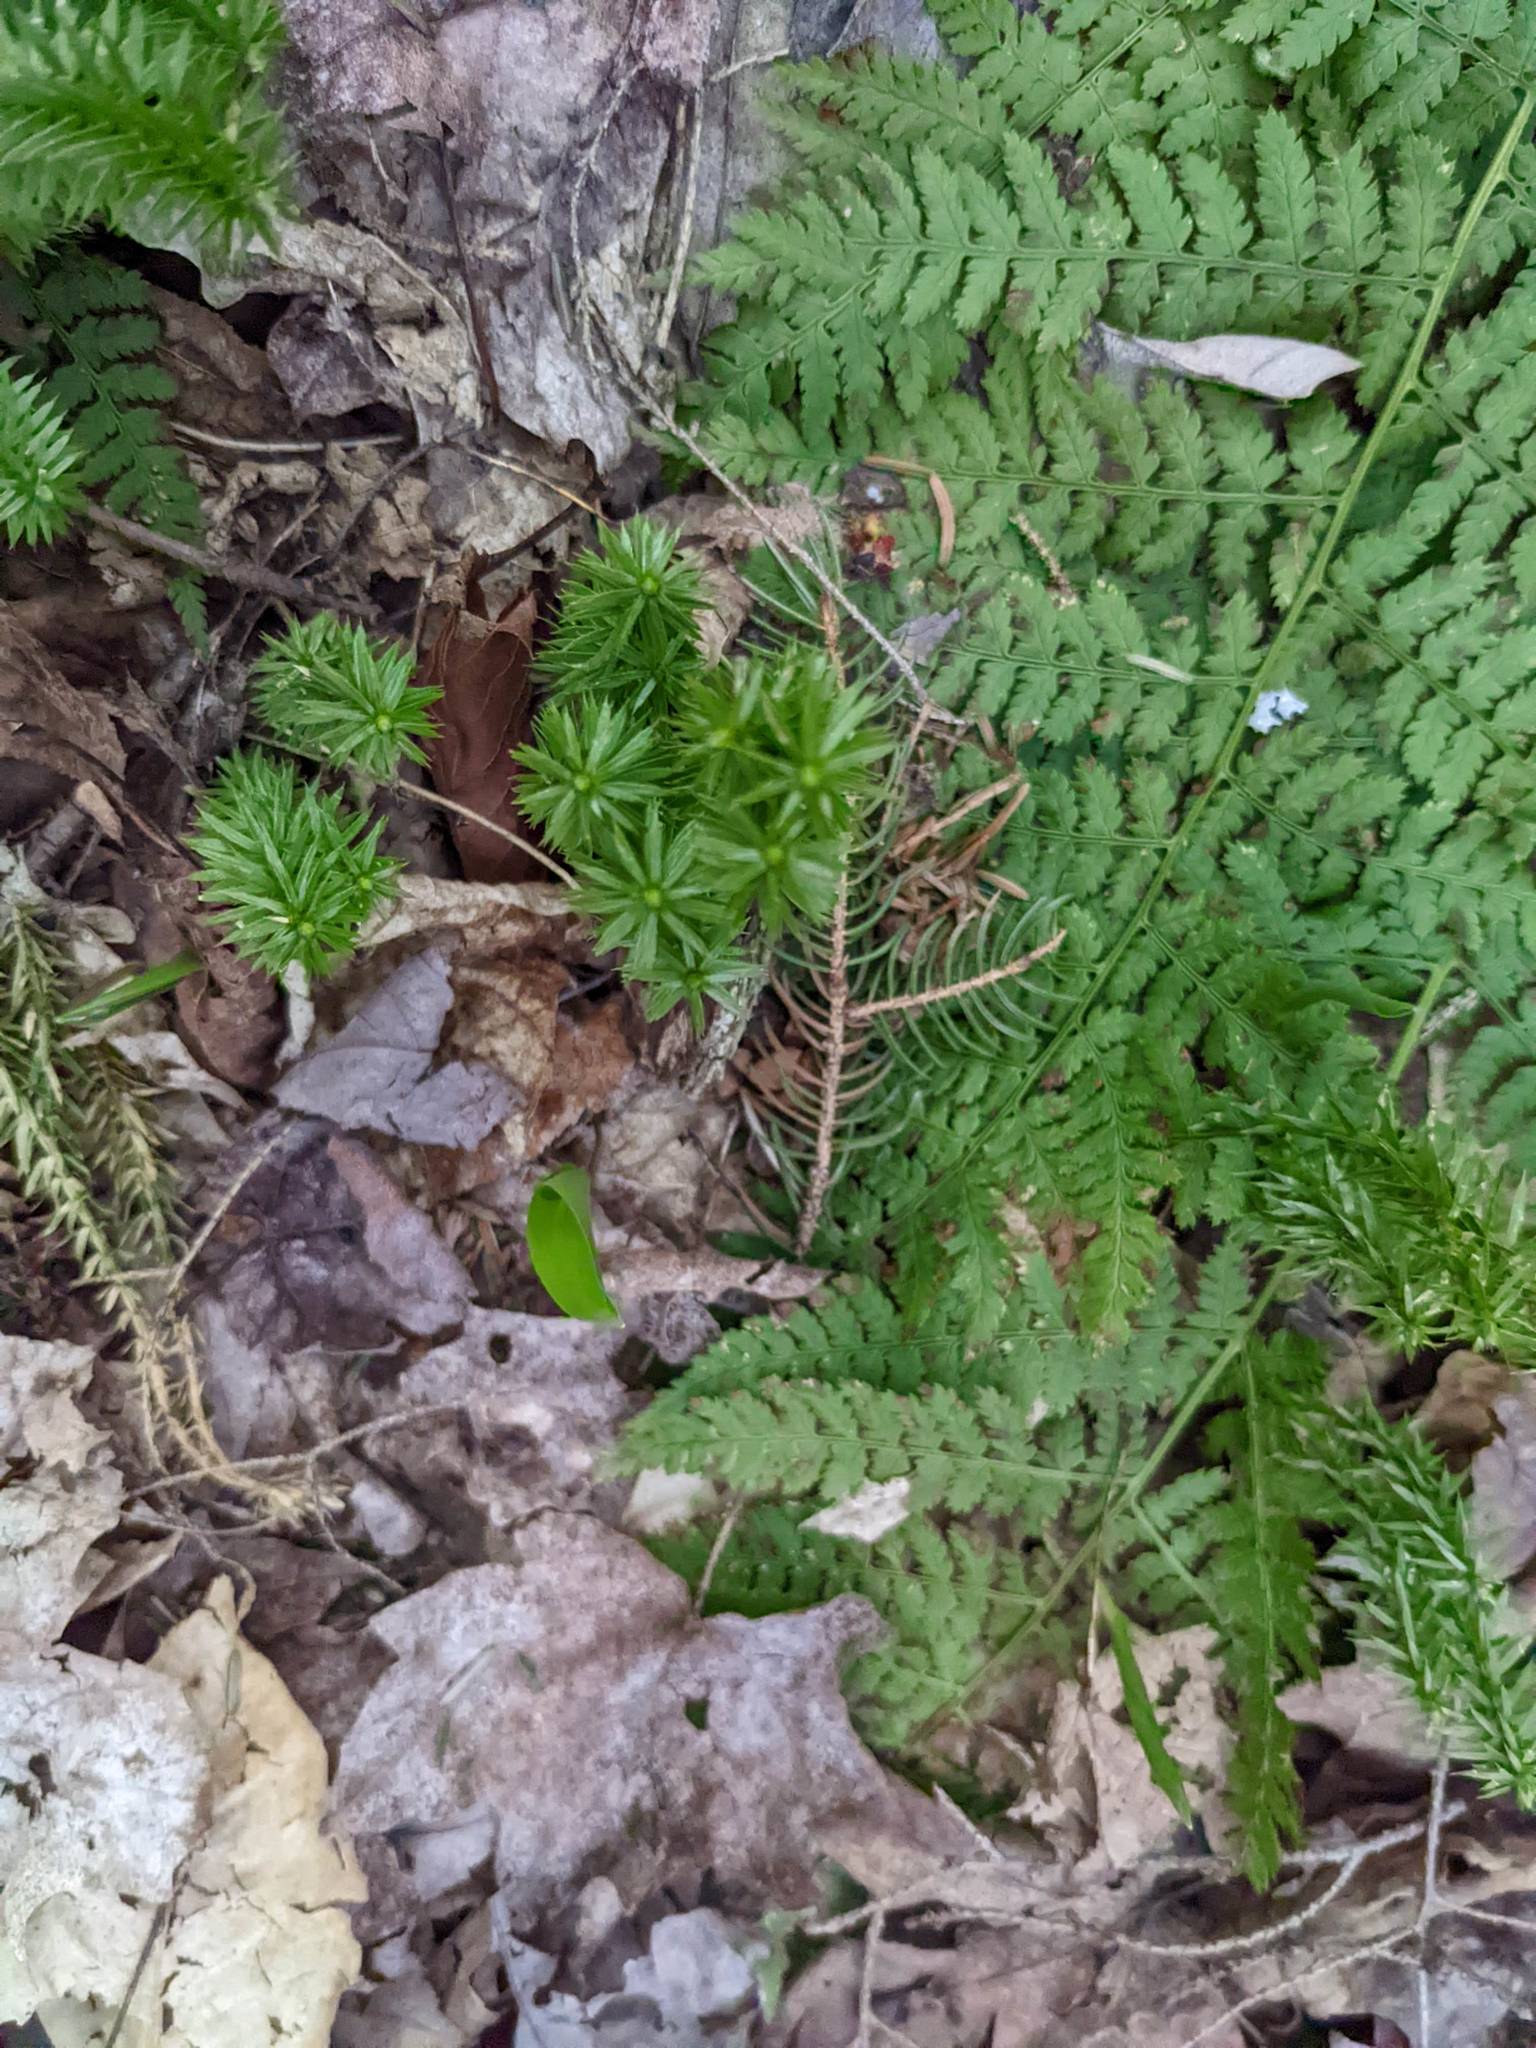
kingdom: Plantae
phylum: Tracheophyta
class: Polypodiopsida
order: Polypodiales
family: Dryopteridaceae
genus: Dryopteris
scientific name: Dryopteris intermedia
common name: Evergreen wood fern
